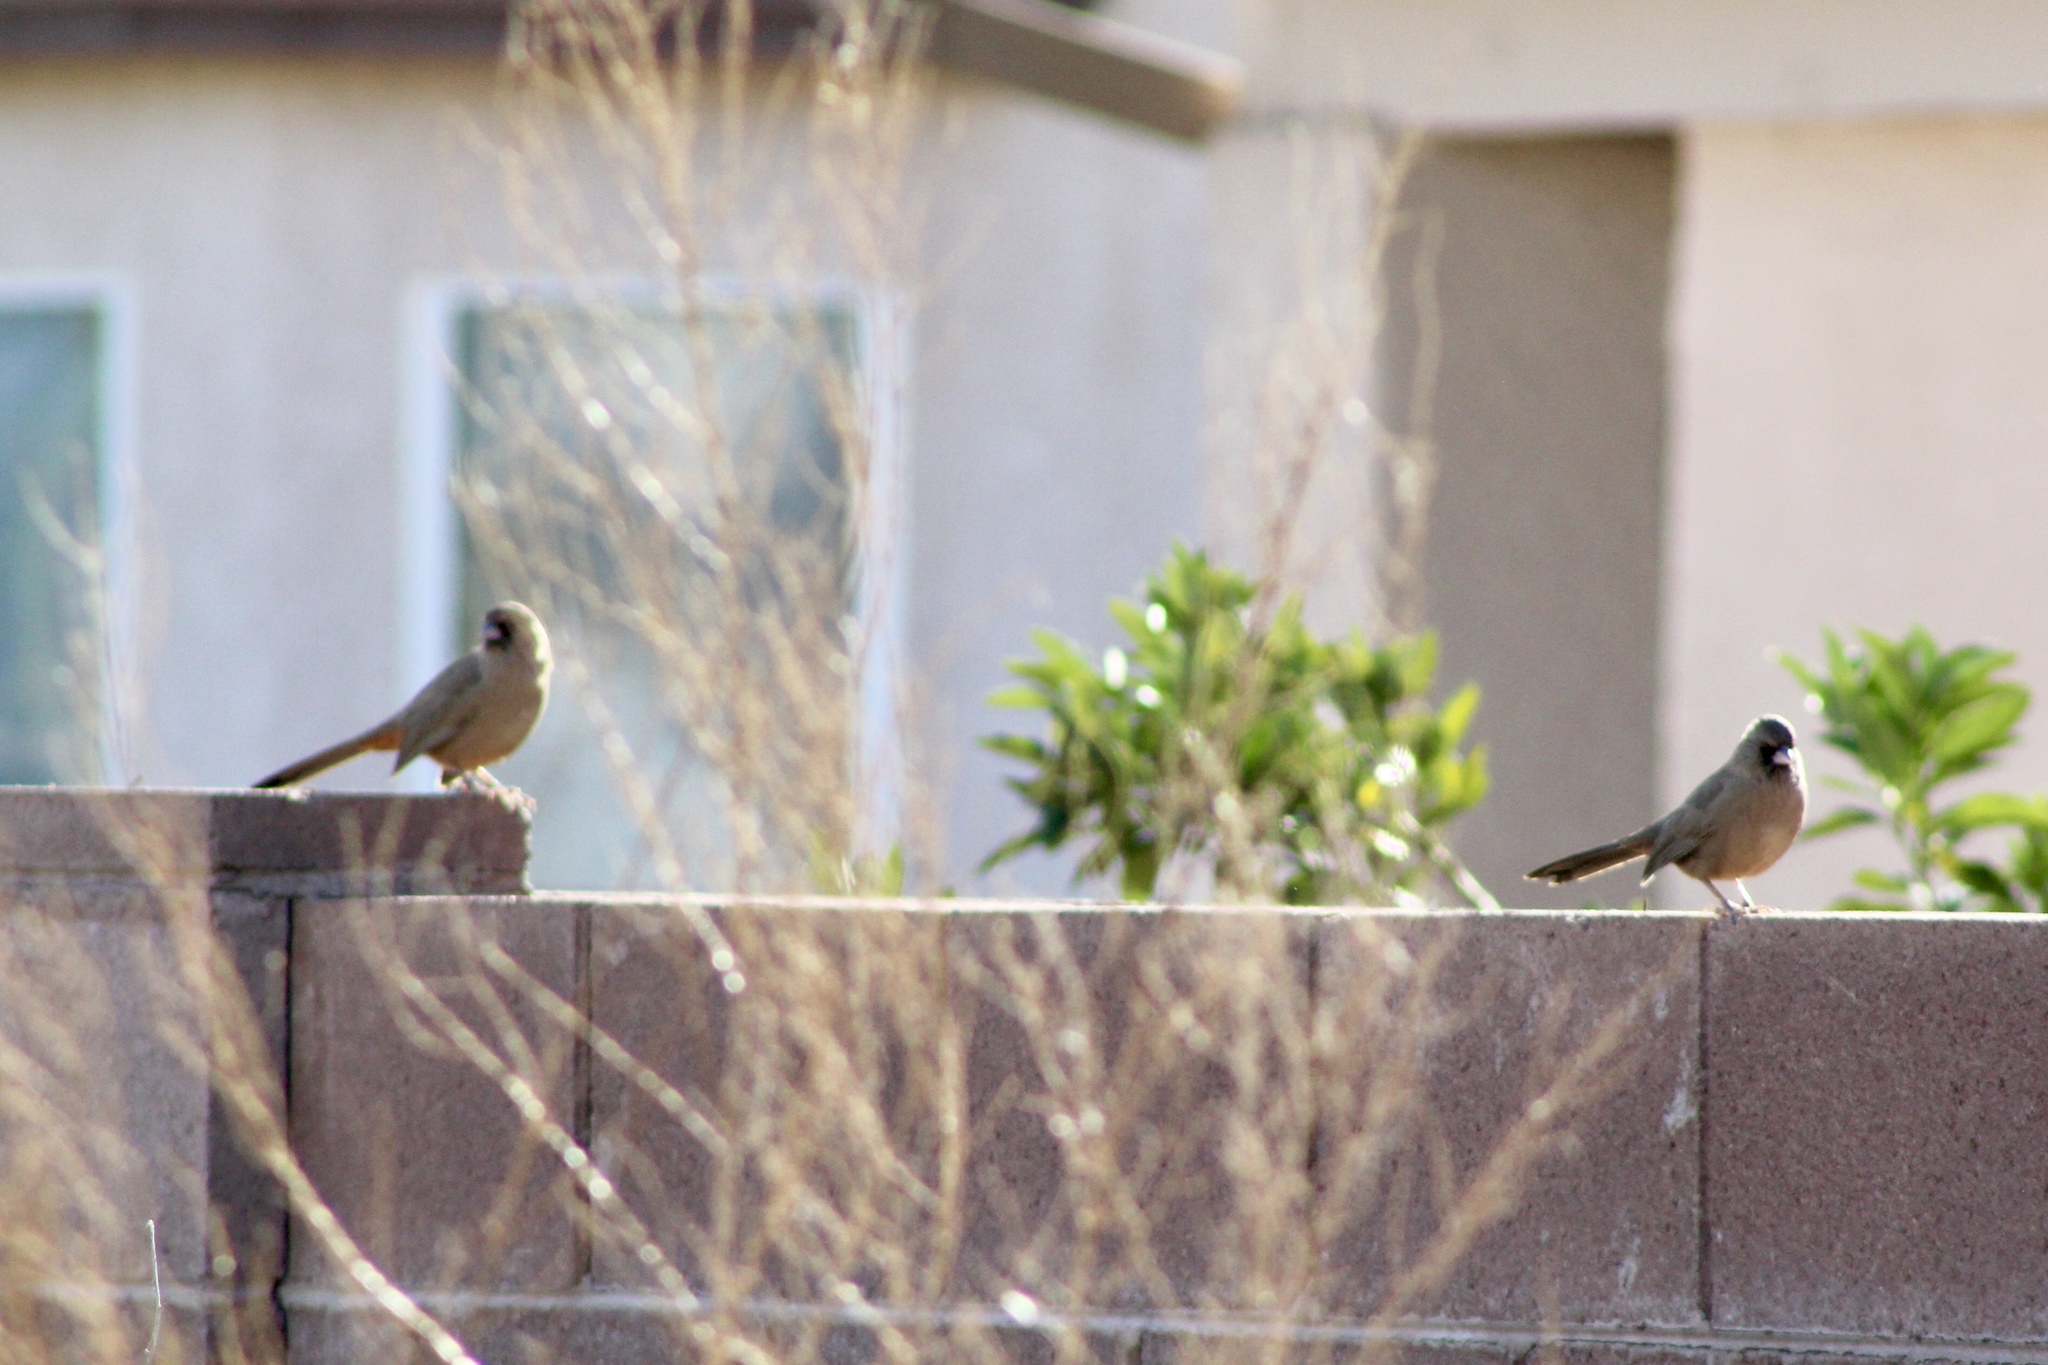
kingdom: Animalia
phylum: Chordata
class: Aves
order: Passeriformes
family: Passerellidae
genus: Melozone
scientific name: Melozone aberti
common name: Abert's towhee
